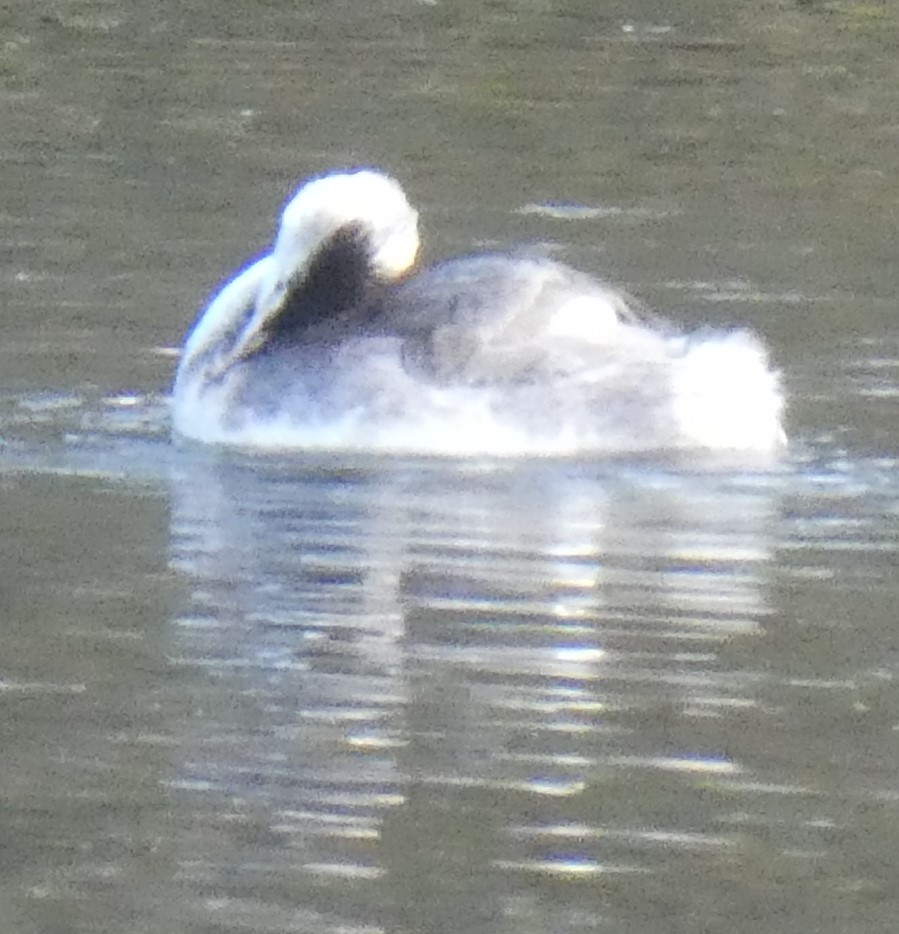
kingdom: Animalia
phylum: Chordata
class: Aves
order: Podicipediformes
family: Podicipedidae
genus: Podiceps
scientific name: Podiceps cristatus
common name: Great crested grebe
